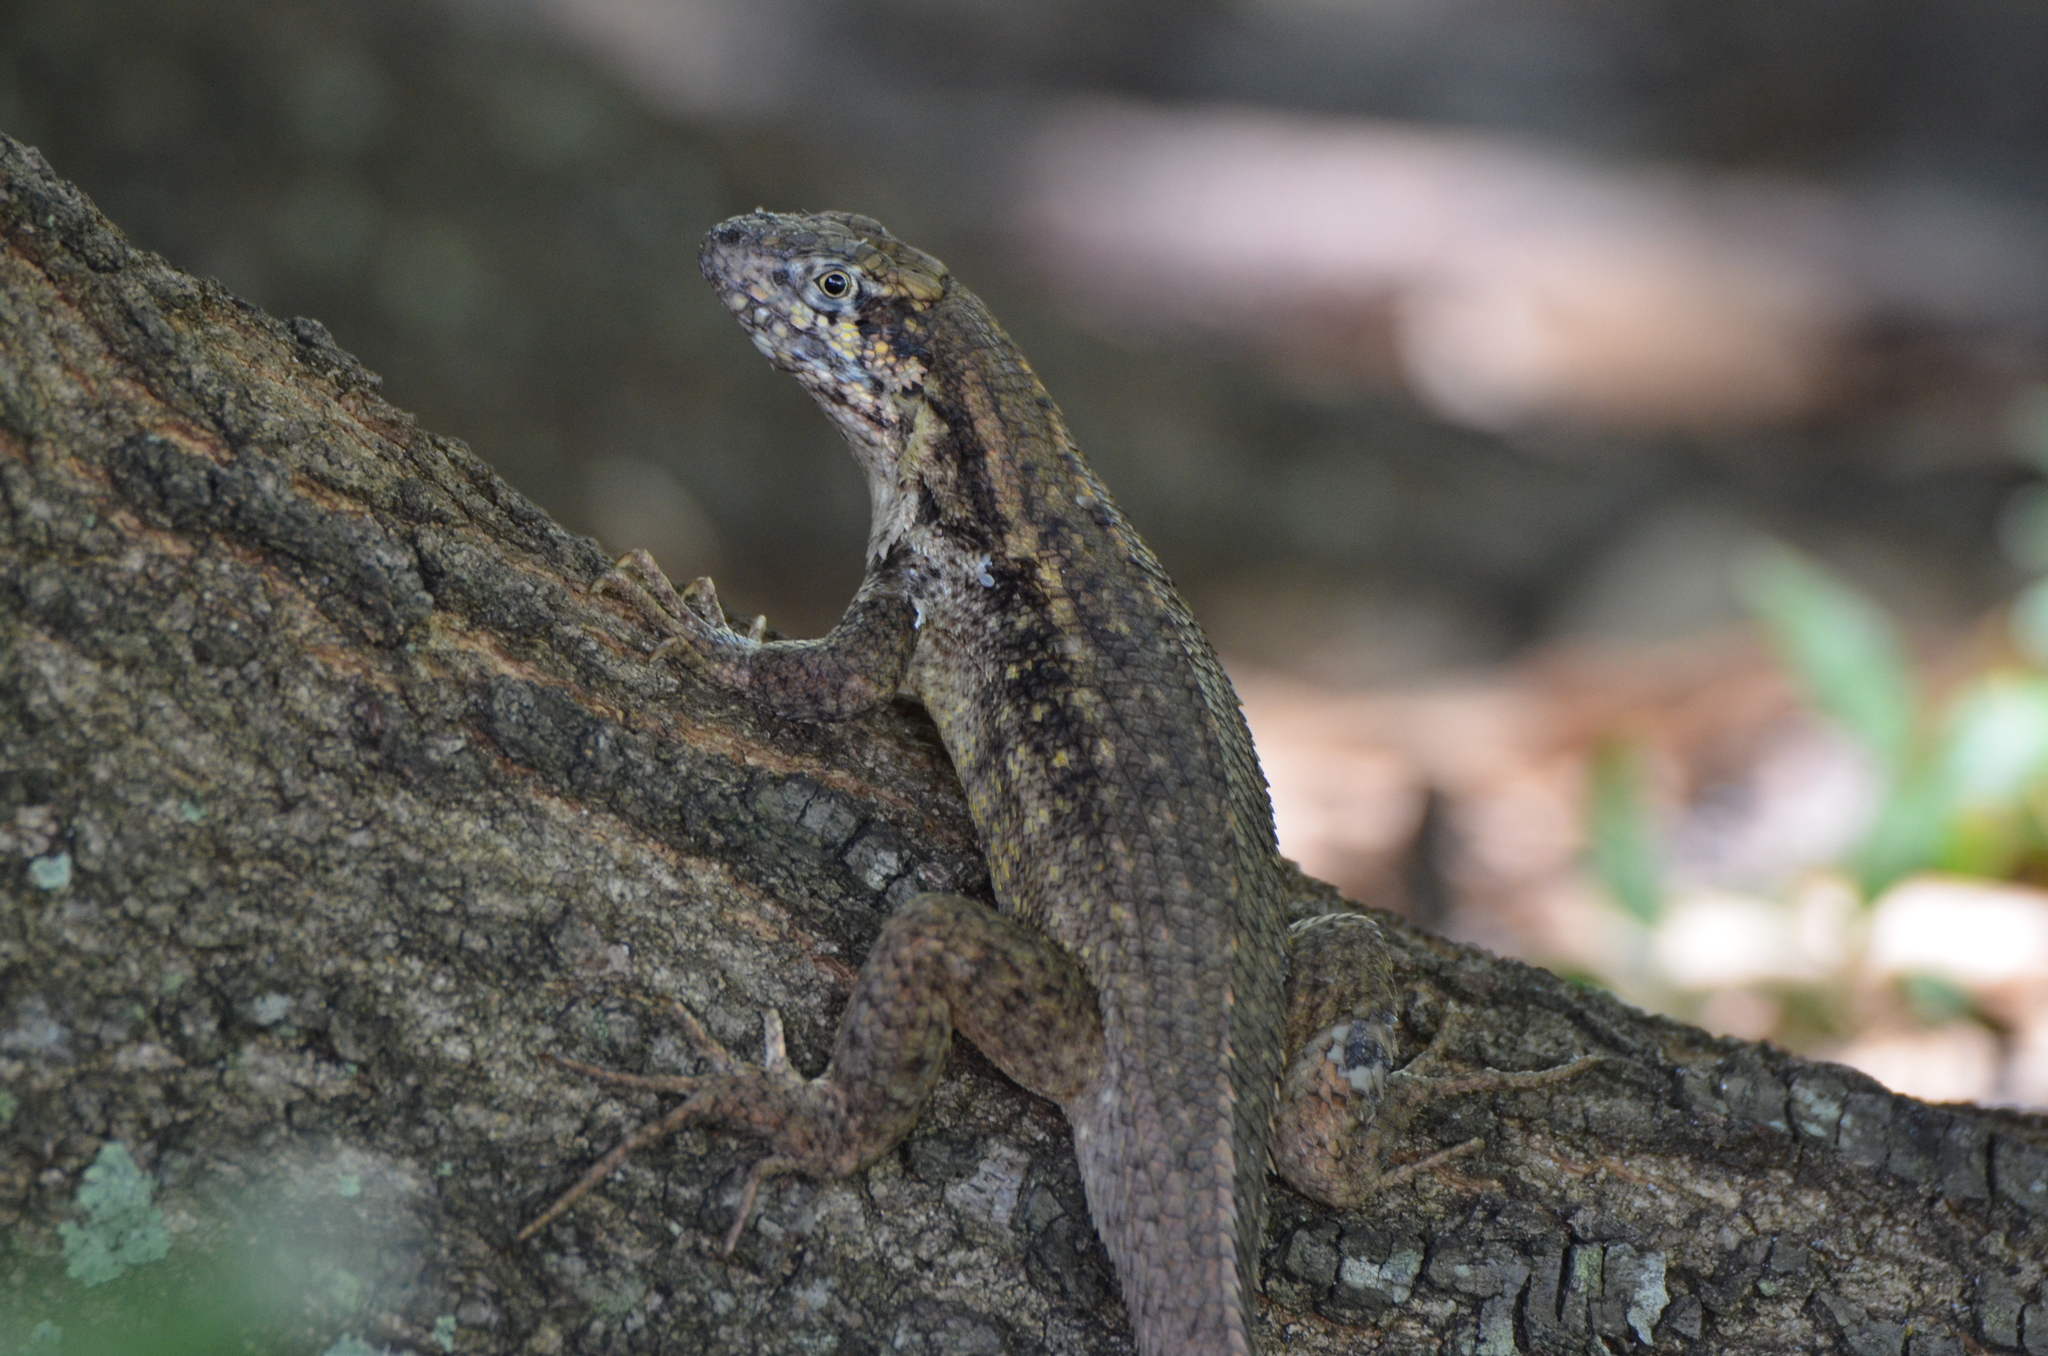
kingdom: Animalia
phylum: Chordata
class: Squamata
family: Leiocephalidae
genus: Leiocephalus
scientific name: Leiocephalus carinatus
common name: Northern curly-tailed lizard
